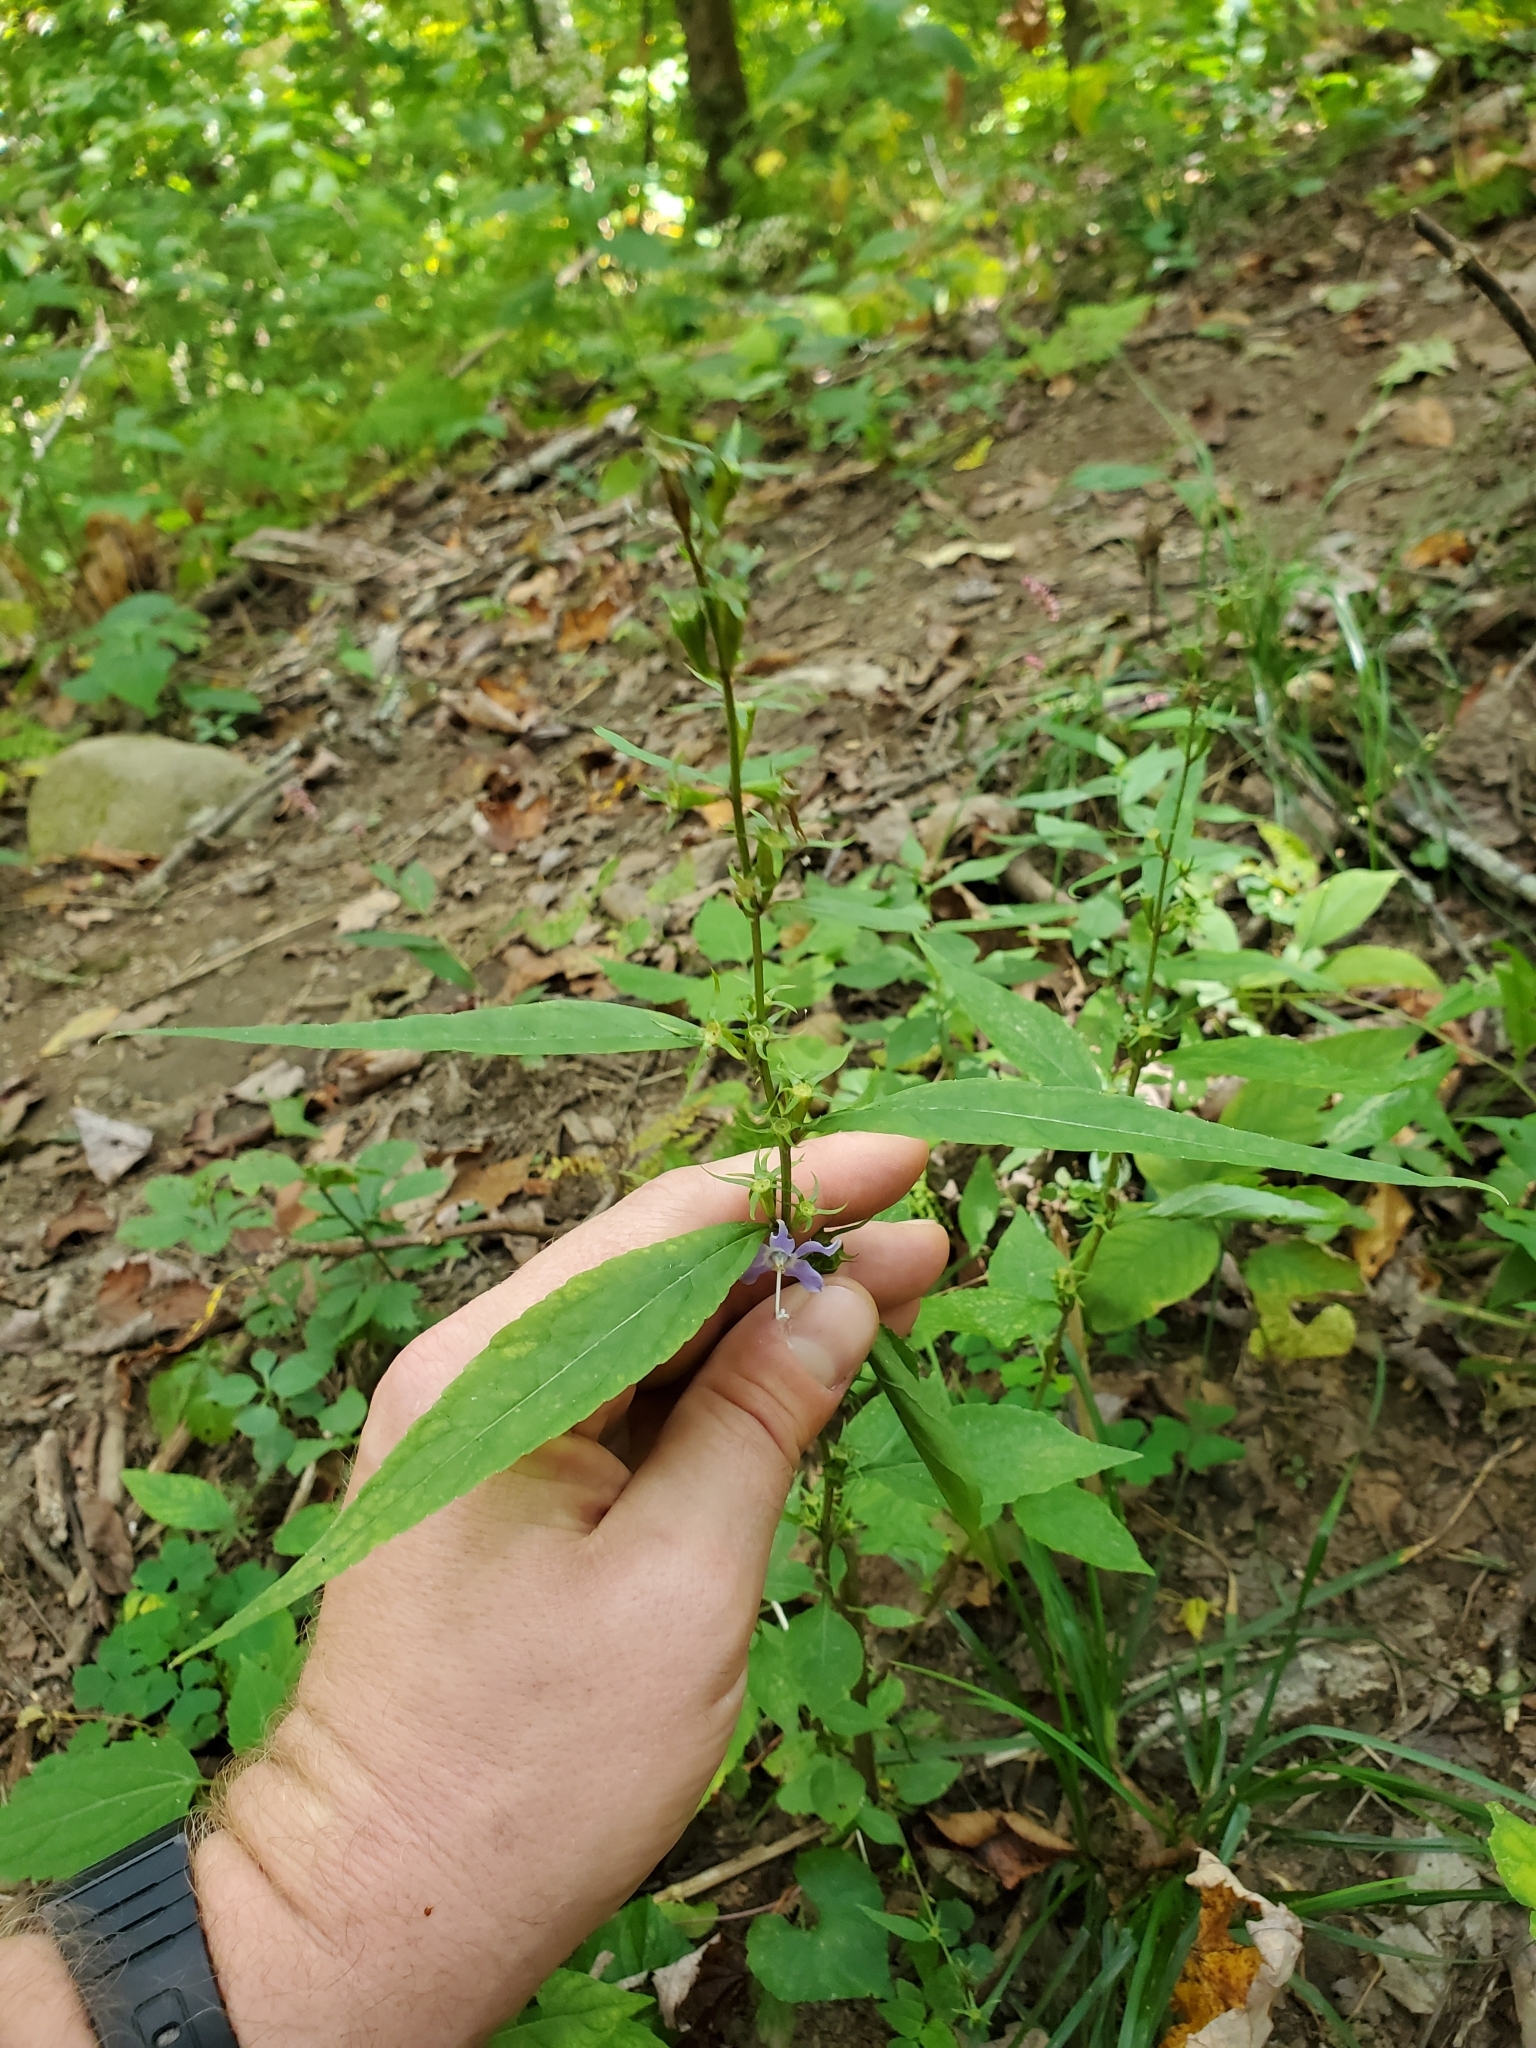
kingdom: Plantae
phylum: Tracheophyta
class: Magnoliopsida
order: Asterales
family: Campanulaceae
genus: Campanulastrum
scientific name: Campanulastrum americanum
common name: American bellflower
